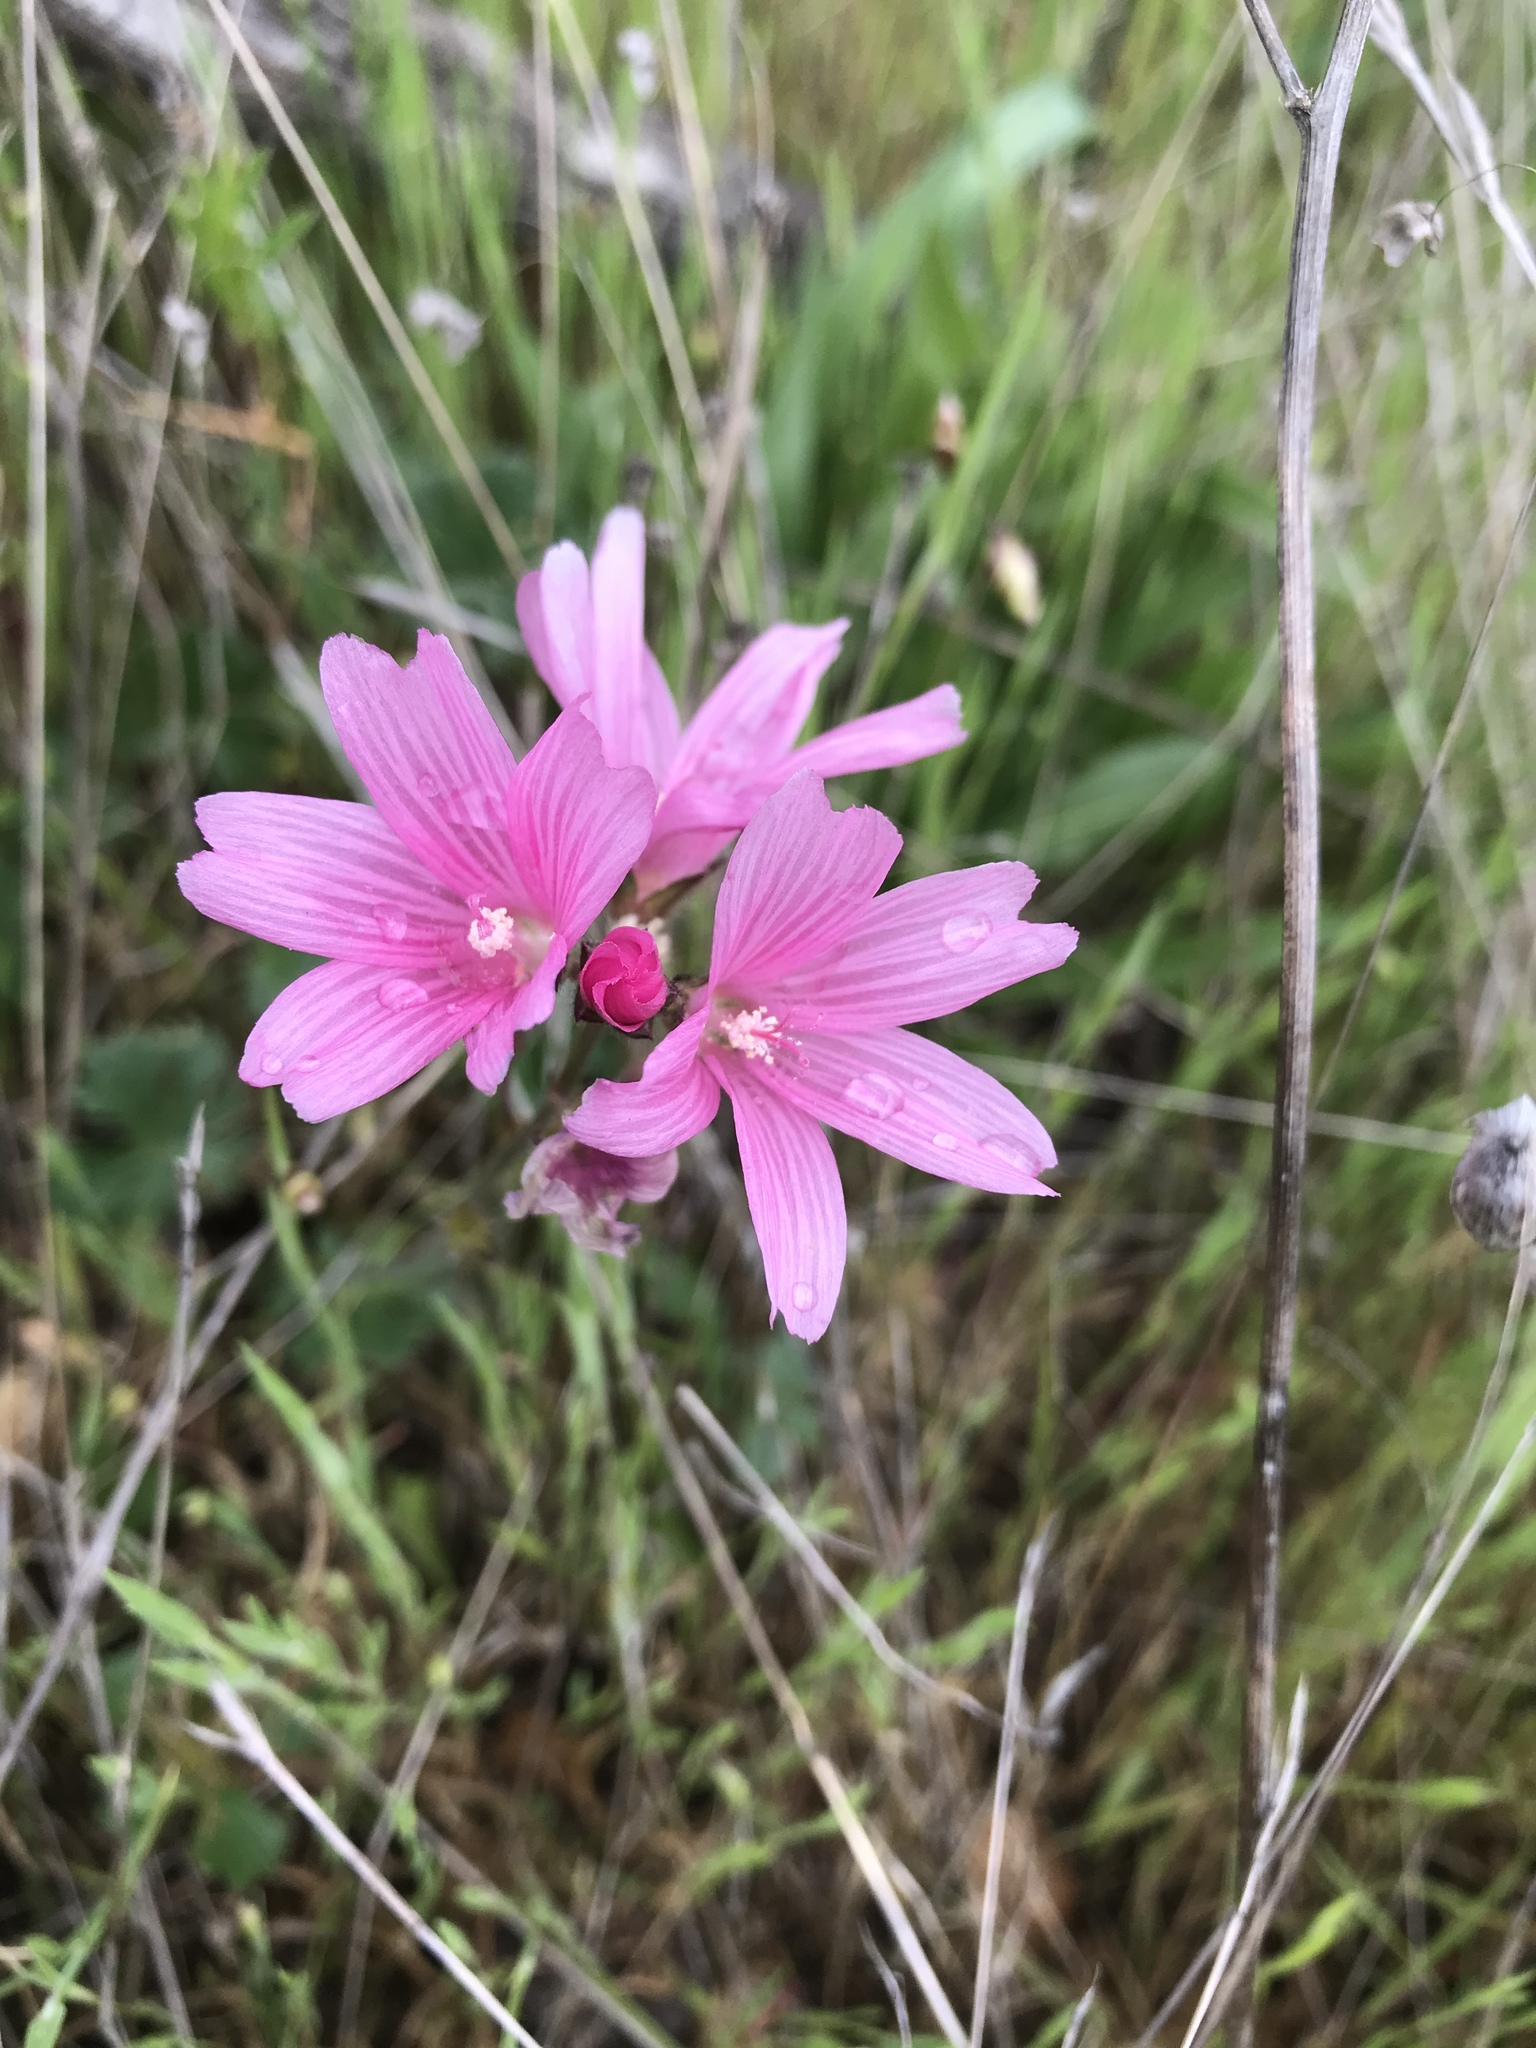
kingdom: Plantae
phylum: Tracheophyta
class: Magnoliopsida
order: Malvales
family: Malvaceae
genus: Sidalcea
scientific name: Sidalcea malviflora
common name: Greek mallow
